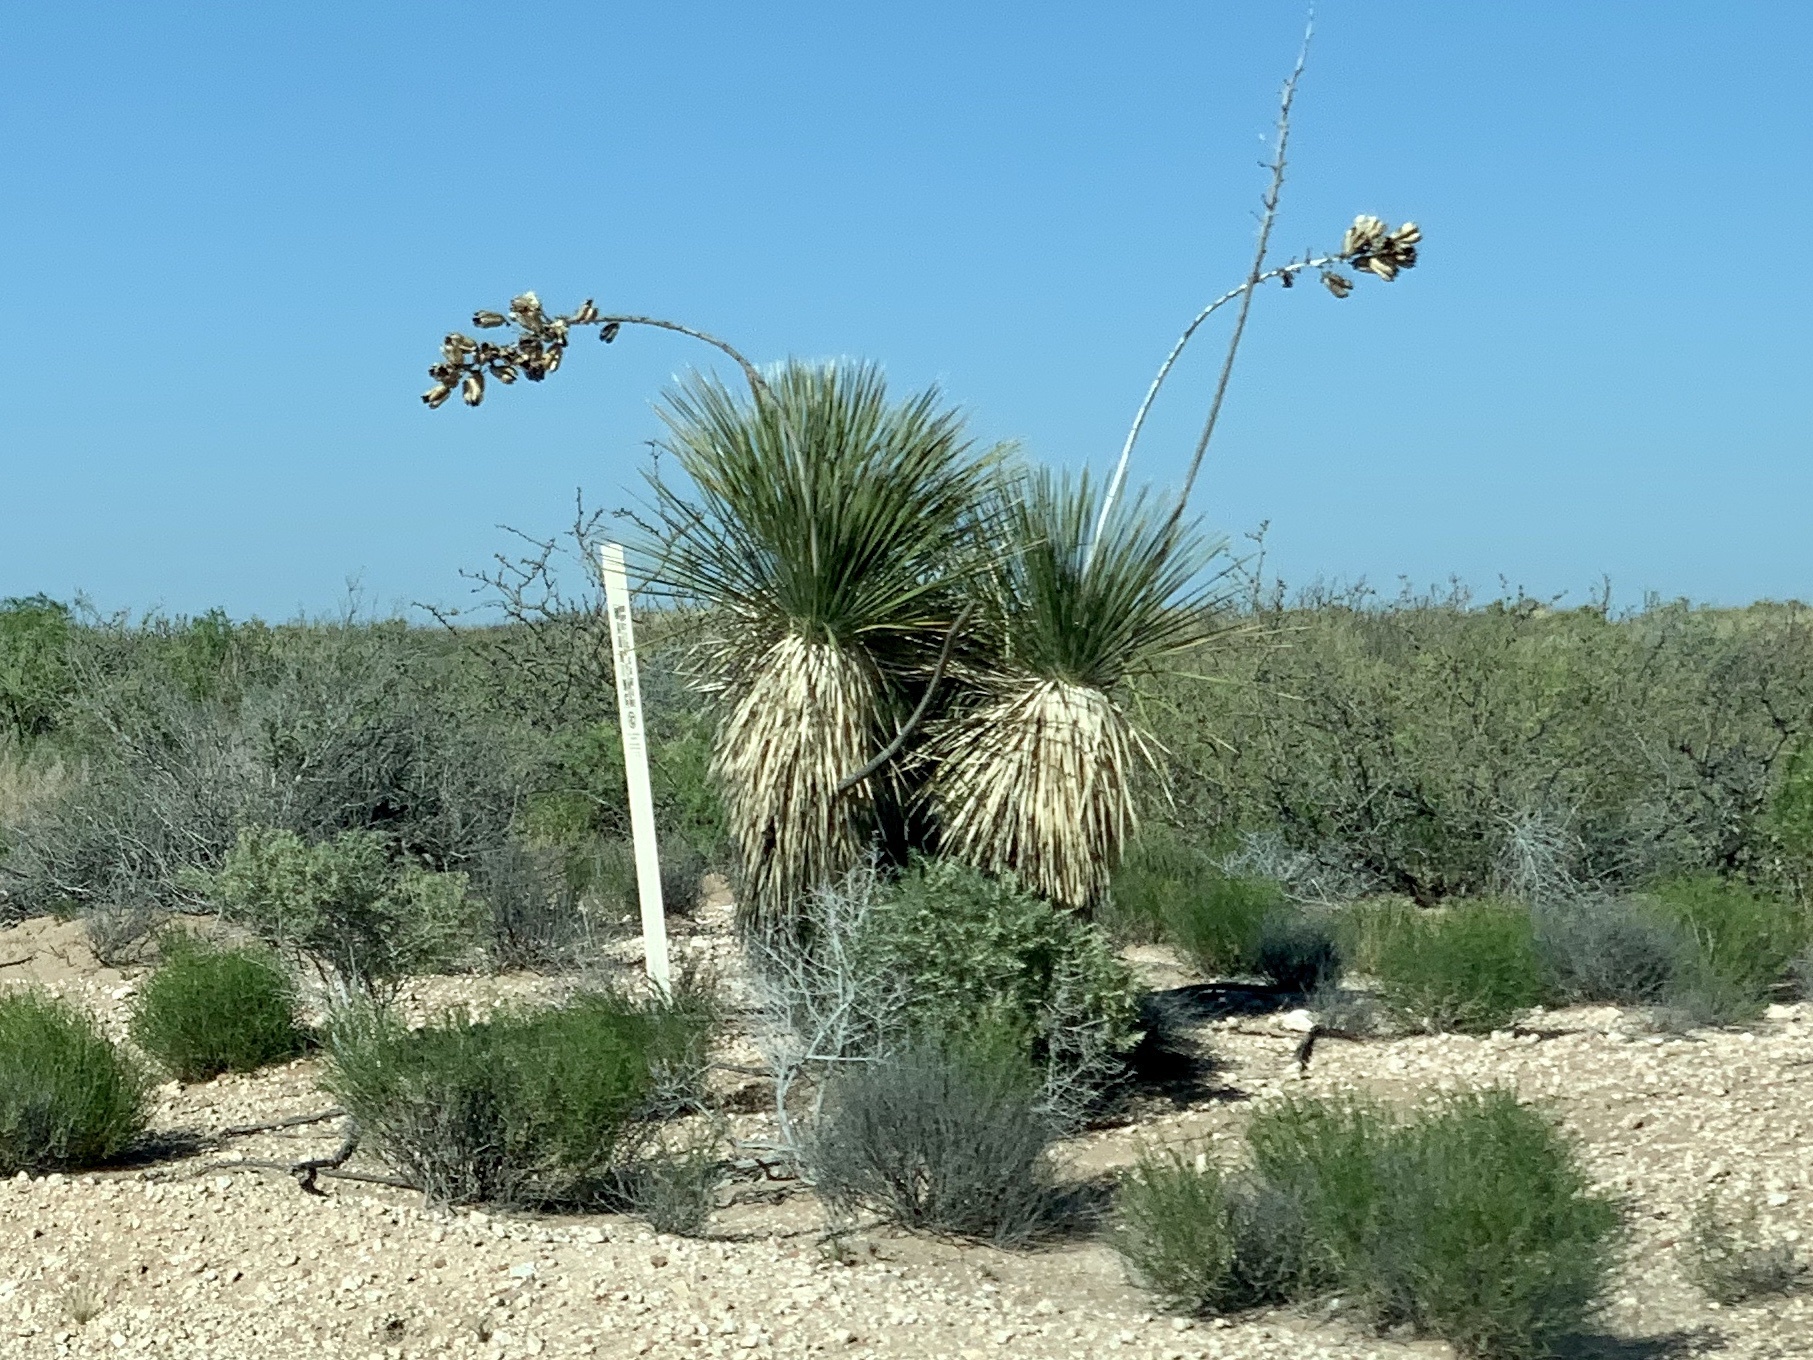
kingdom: Plantae
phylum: Tracheophyta
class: Liliopsida
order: Asparagales
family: Asparagaceae
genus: Yucca
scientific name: Yucca elata
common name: Palmella
